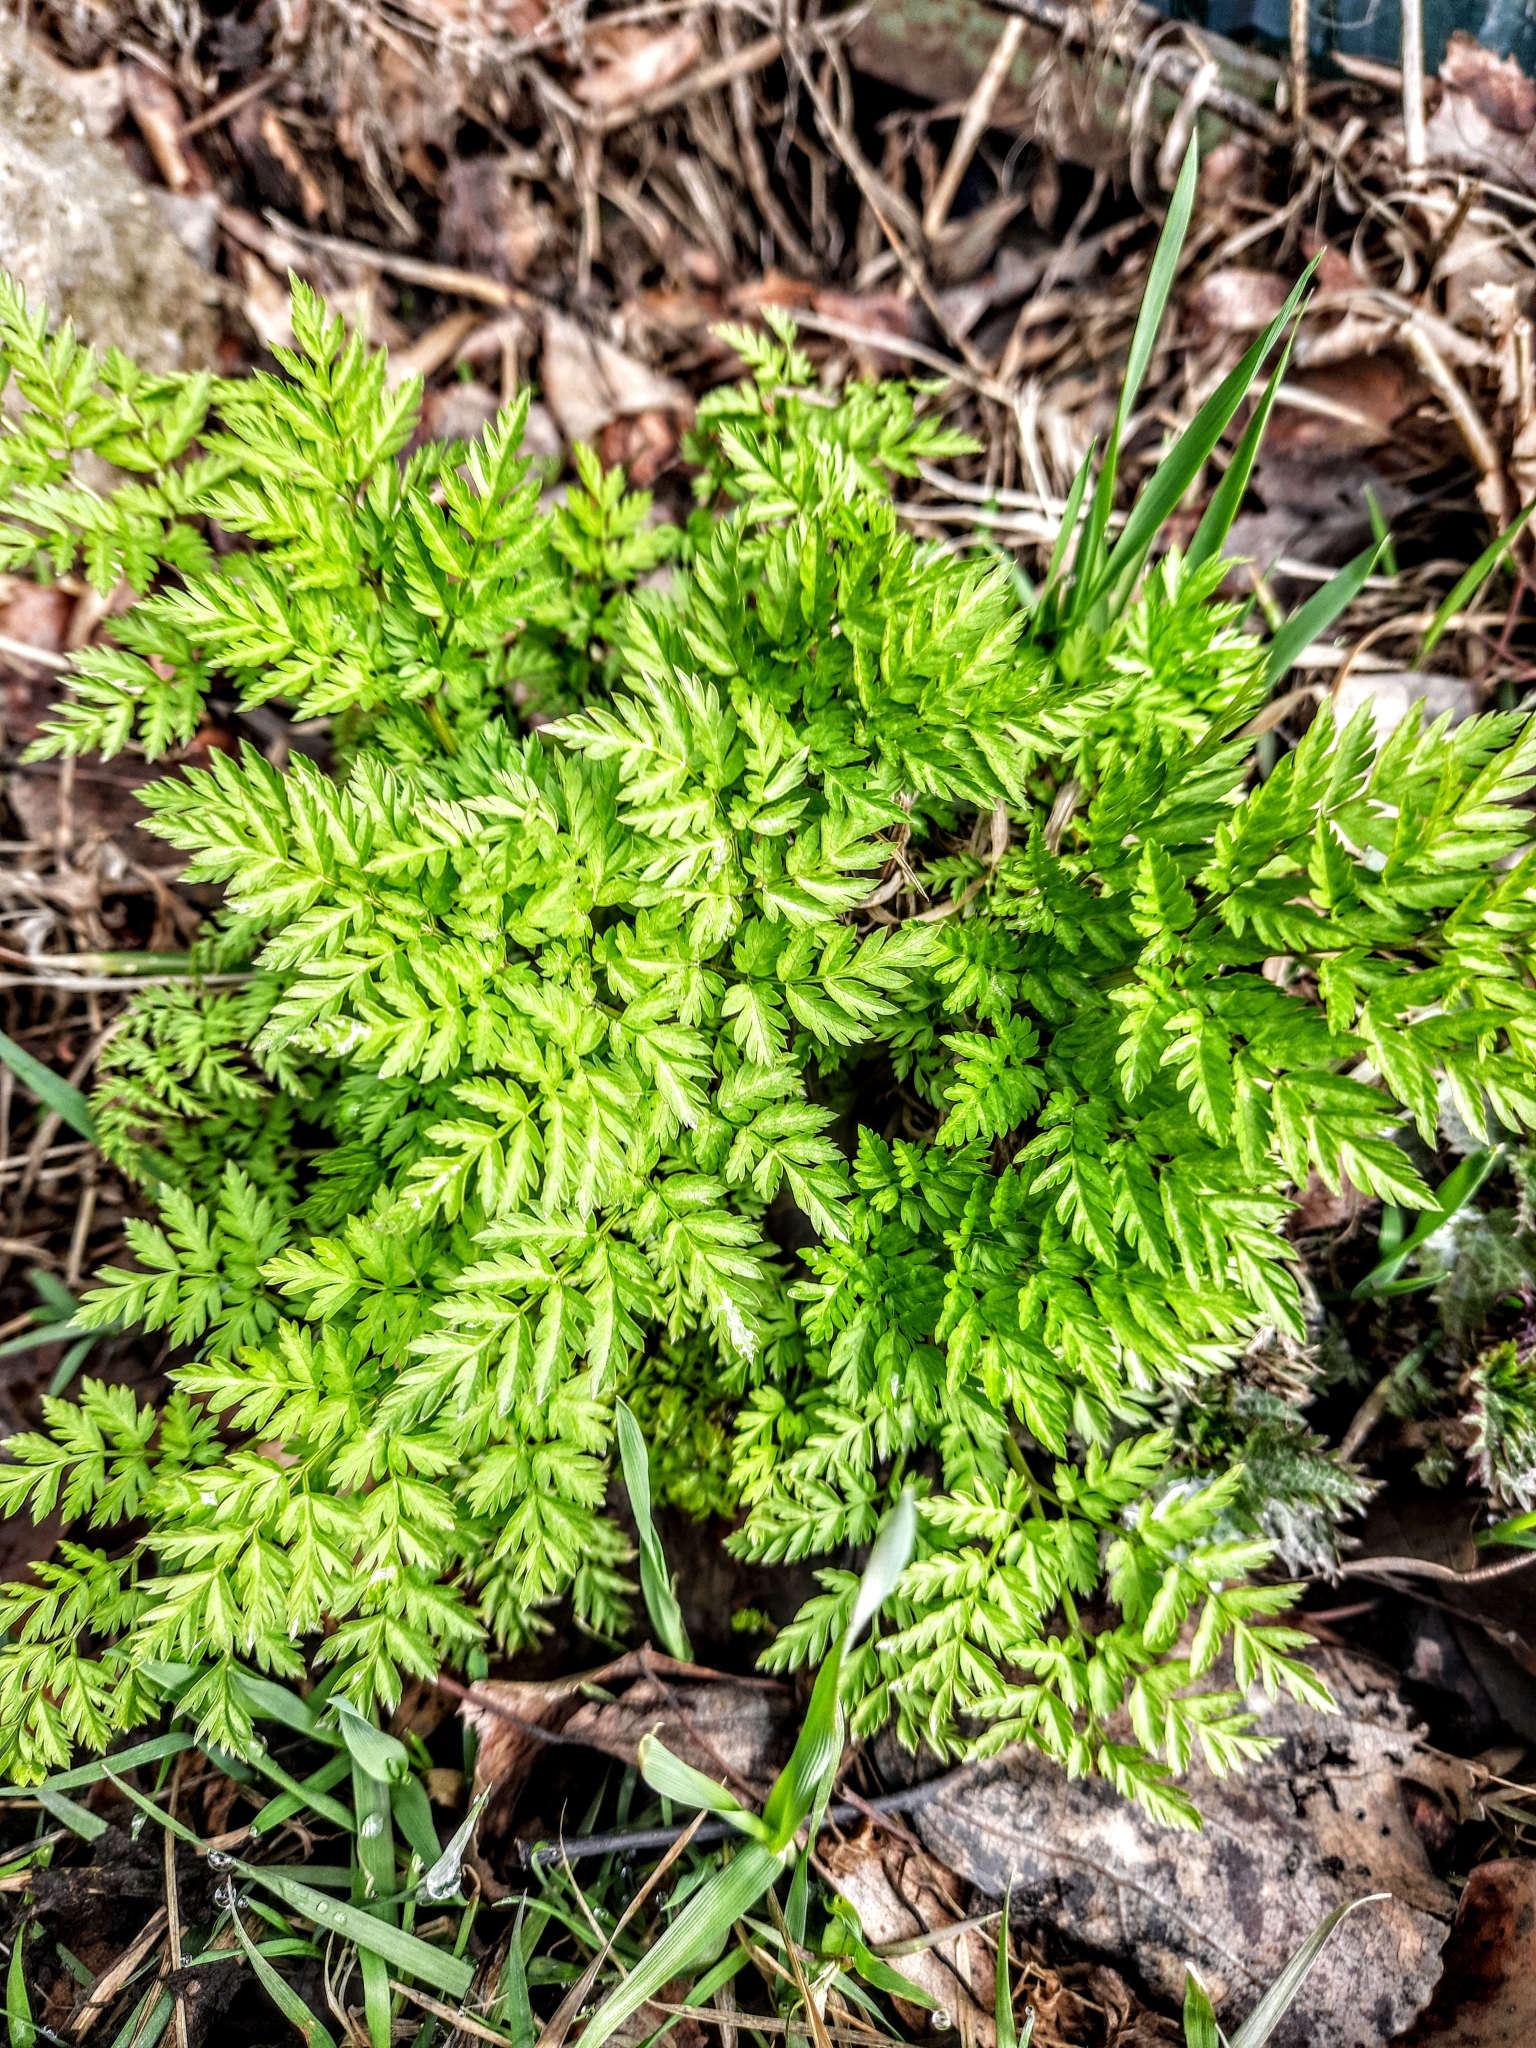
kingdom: Plantae
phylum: Tracheophyta
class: Magnoliopsida
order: Apiales
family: Apiaceae
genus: Anthriscus
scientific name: Anthriscus sylvestris
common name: Cow parsley
